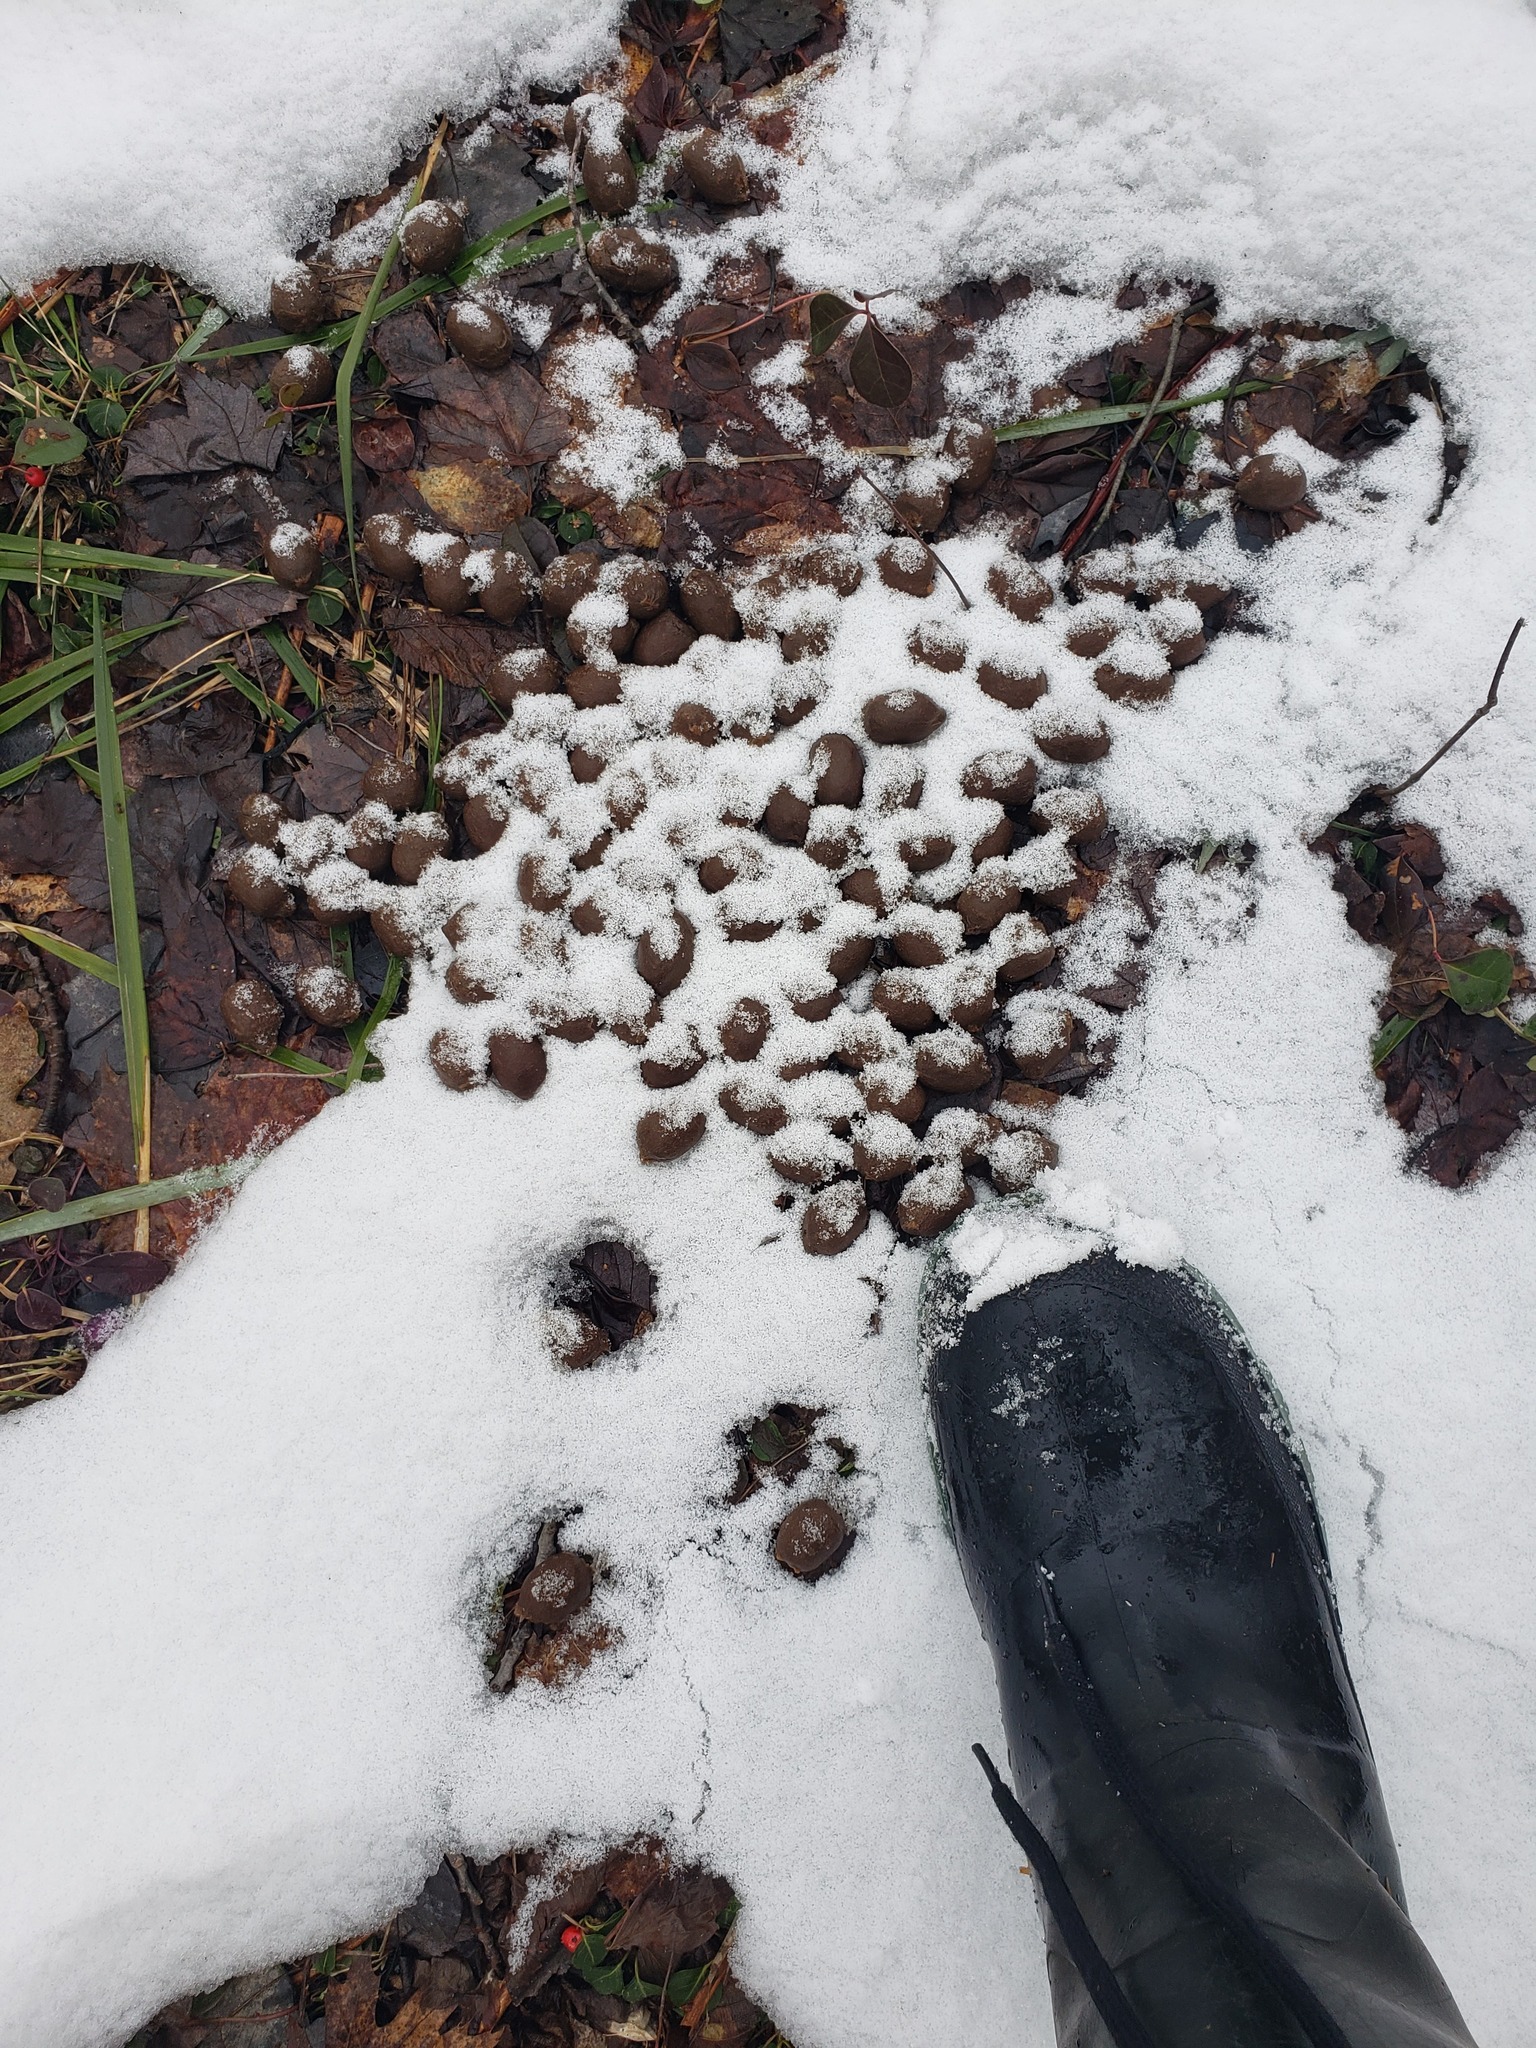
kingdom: Animalia
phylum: Chordata
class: Mammalia
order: Artiodactyla
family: Cervidae
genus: Alces
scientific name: Alces alces
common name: Moose
